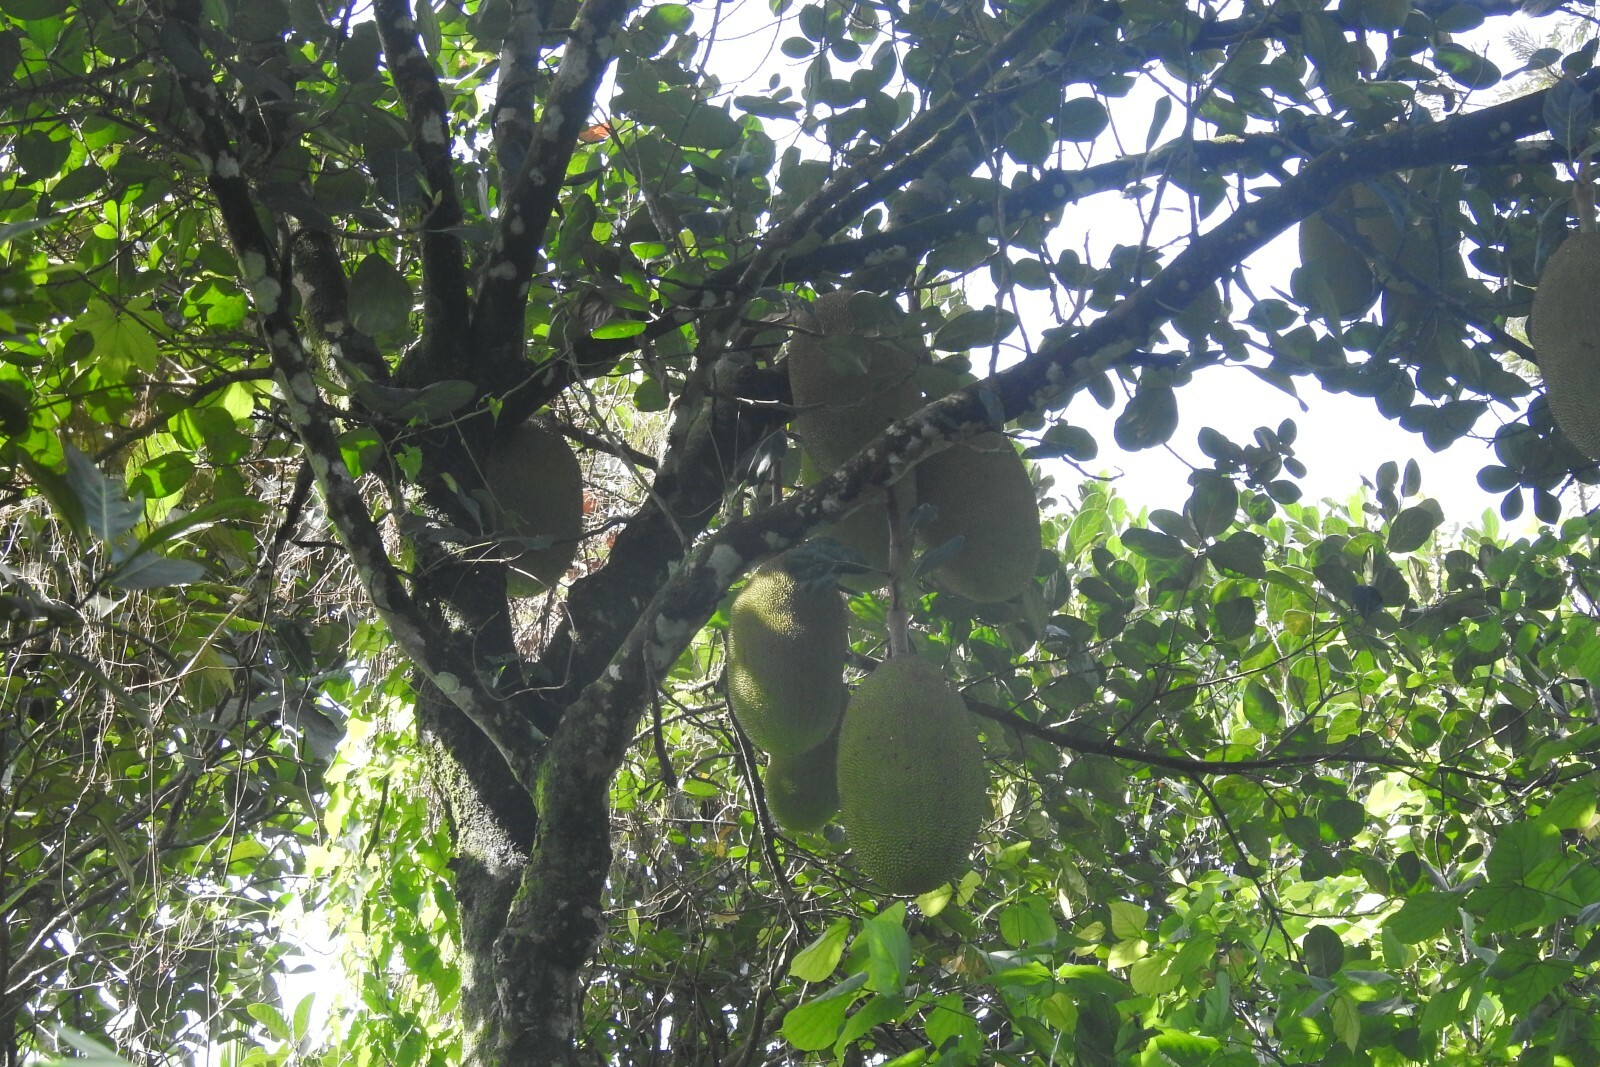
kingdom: Plantae
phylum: Tracheophyta
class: Magnoliopsida
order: Rosales
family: Moraceae
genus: Artocarpus
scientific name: Artocarpus heterophyllus
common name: Jackfruit
